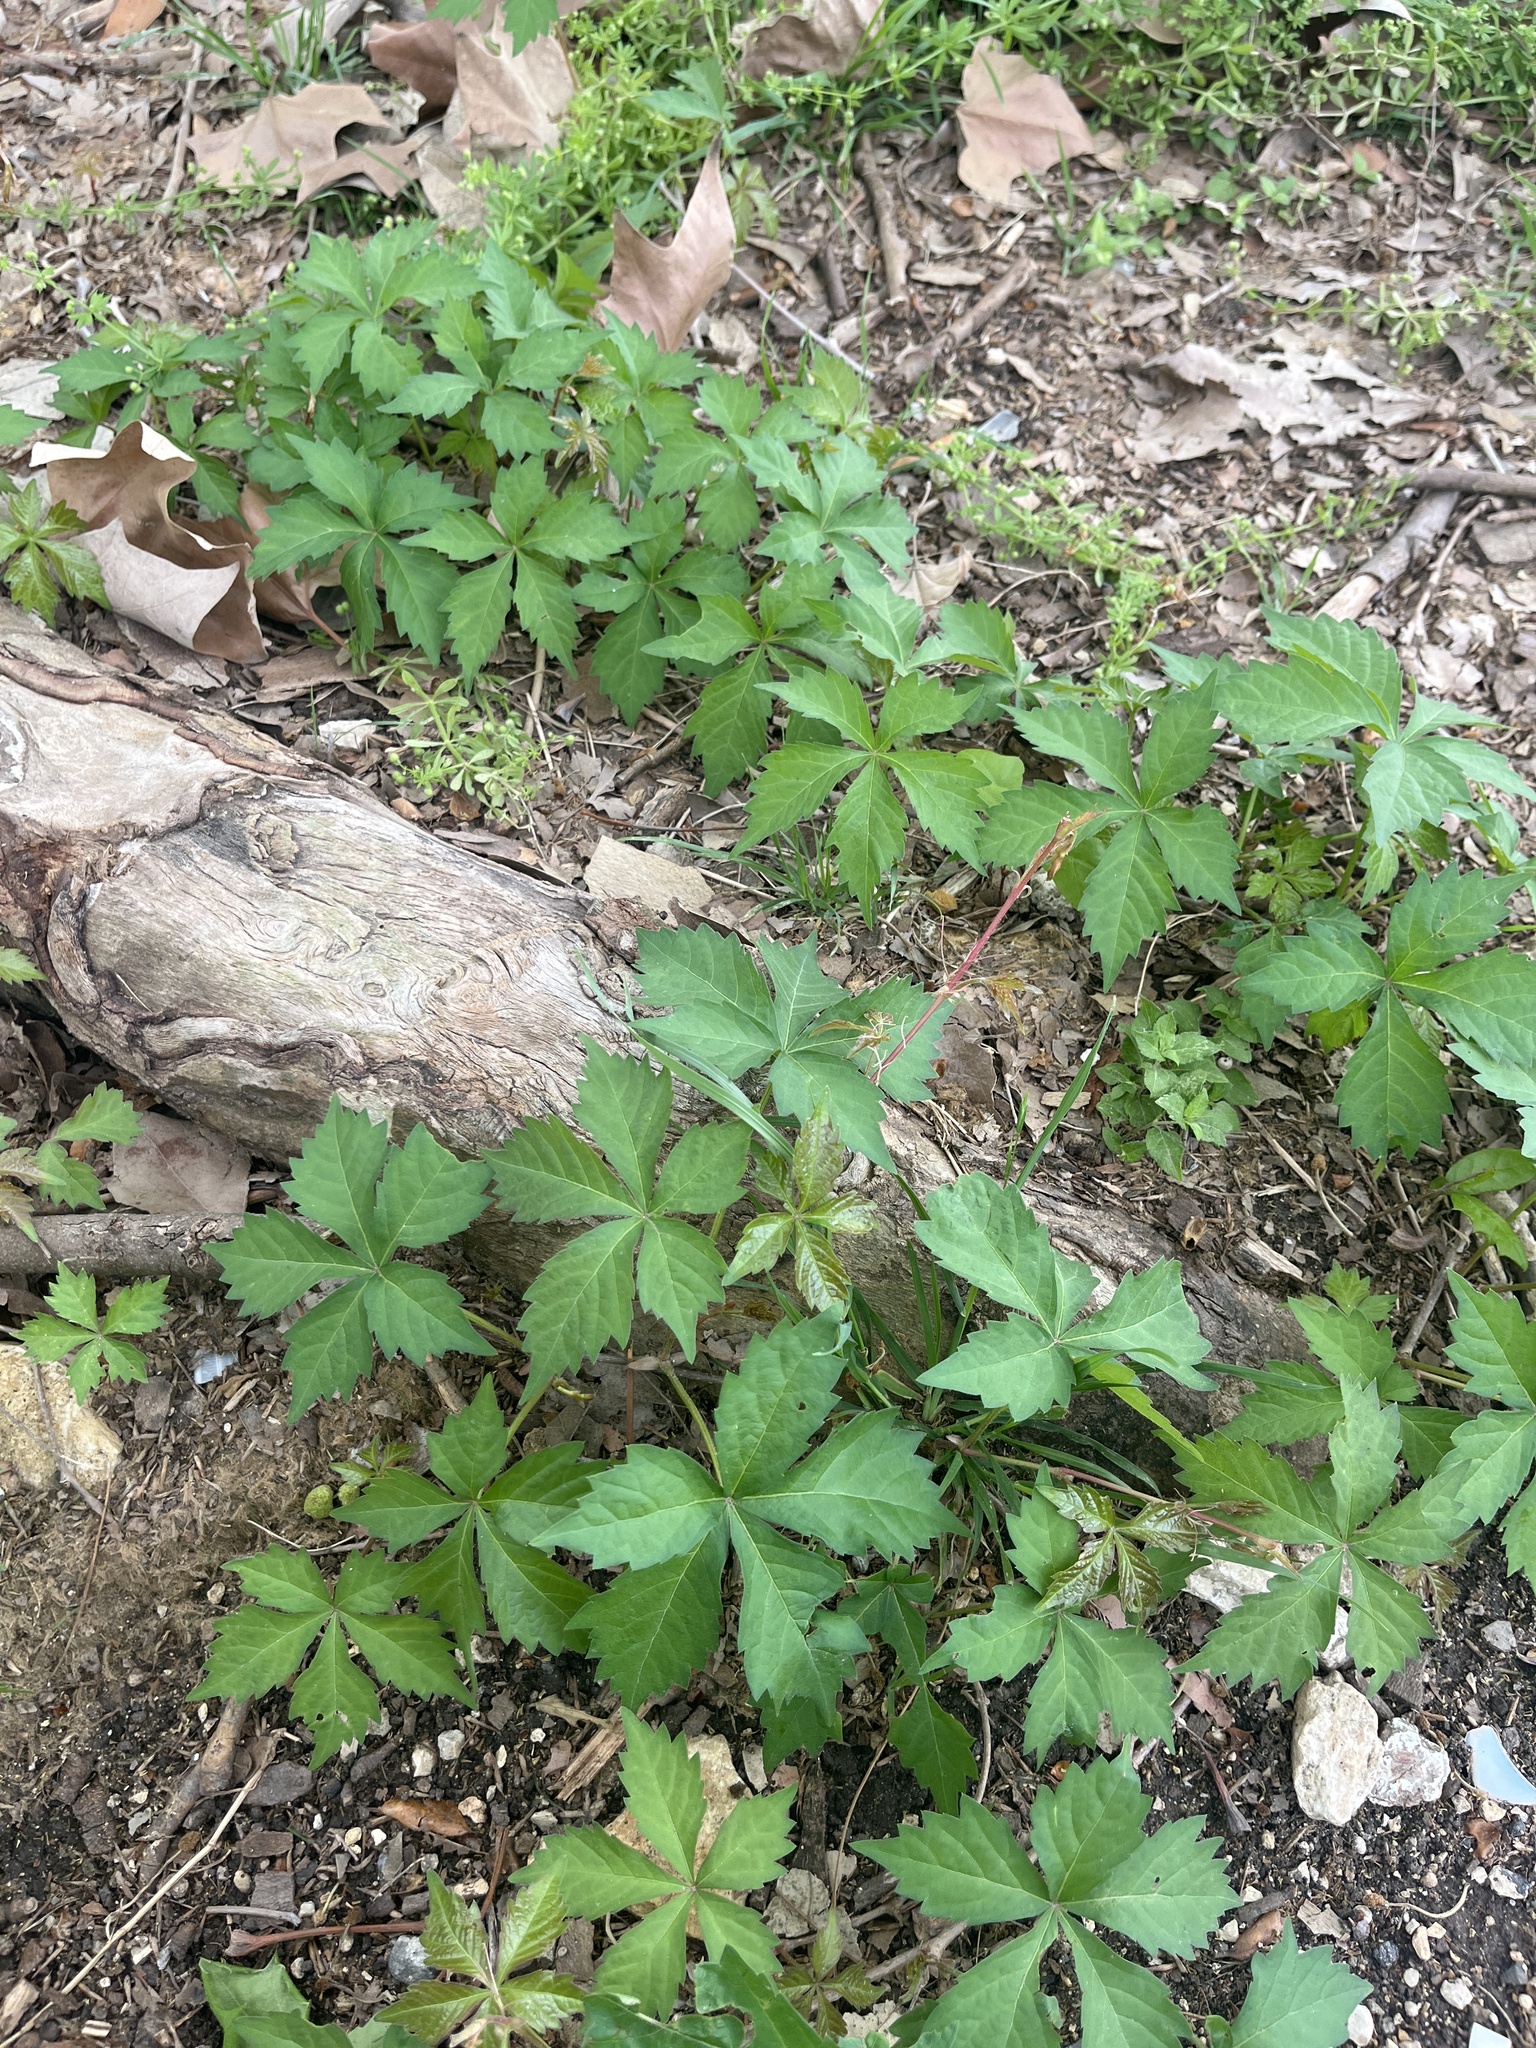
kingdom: Plantae
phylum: Tracheophyta
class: Magnoliopsida
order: Vitales
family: Vitaceae
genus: Parthenocissus
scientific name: Parthenocissus quinquefolia
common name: Virginia-creeper
